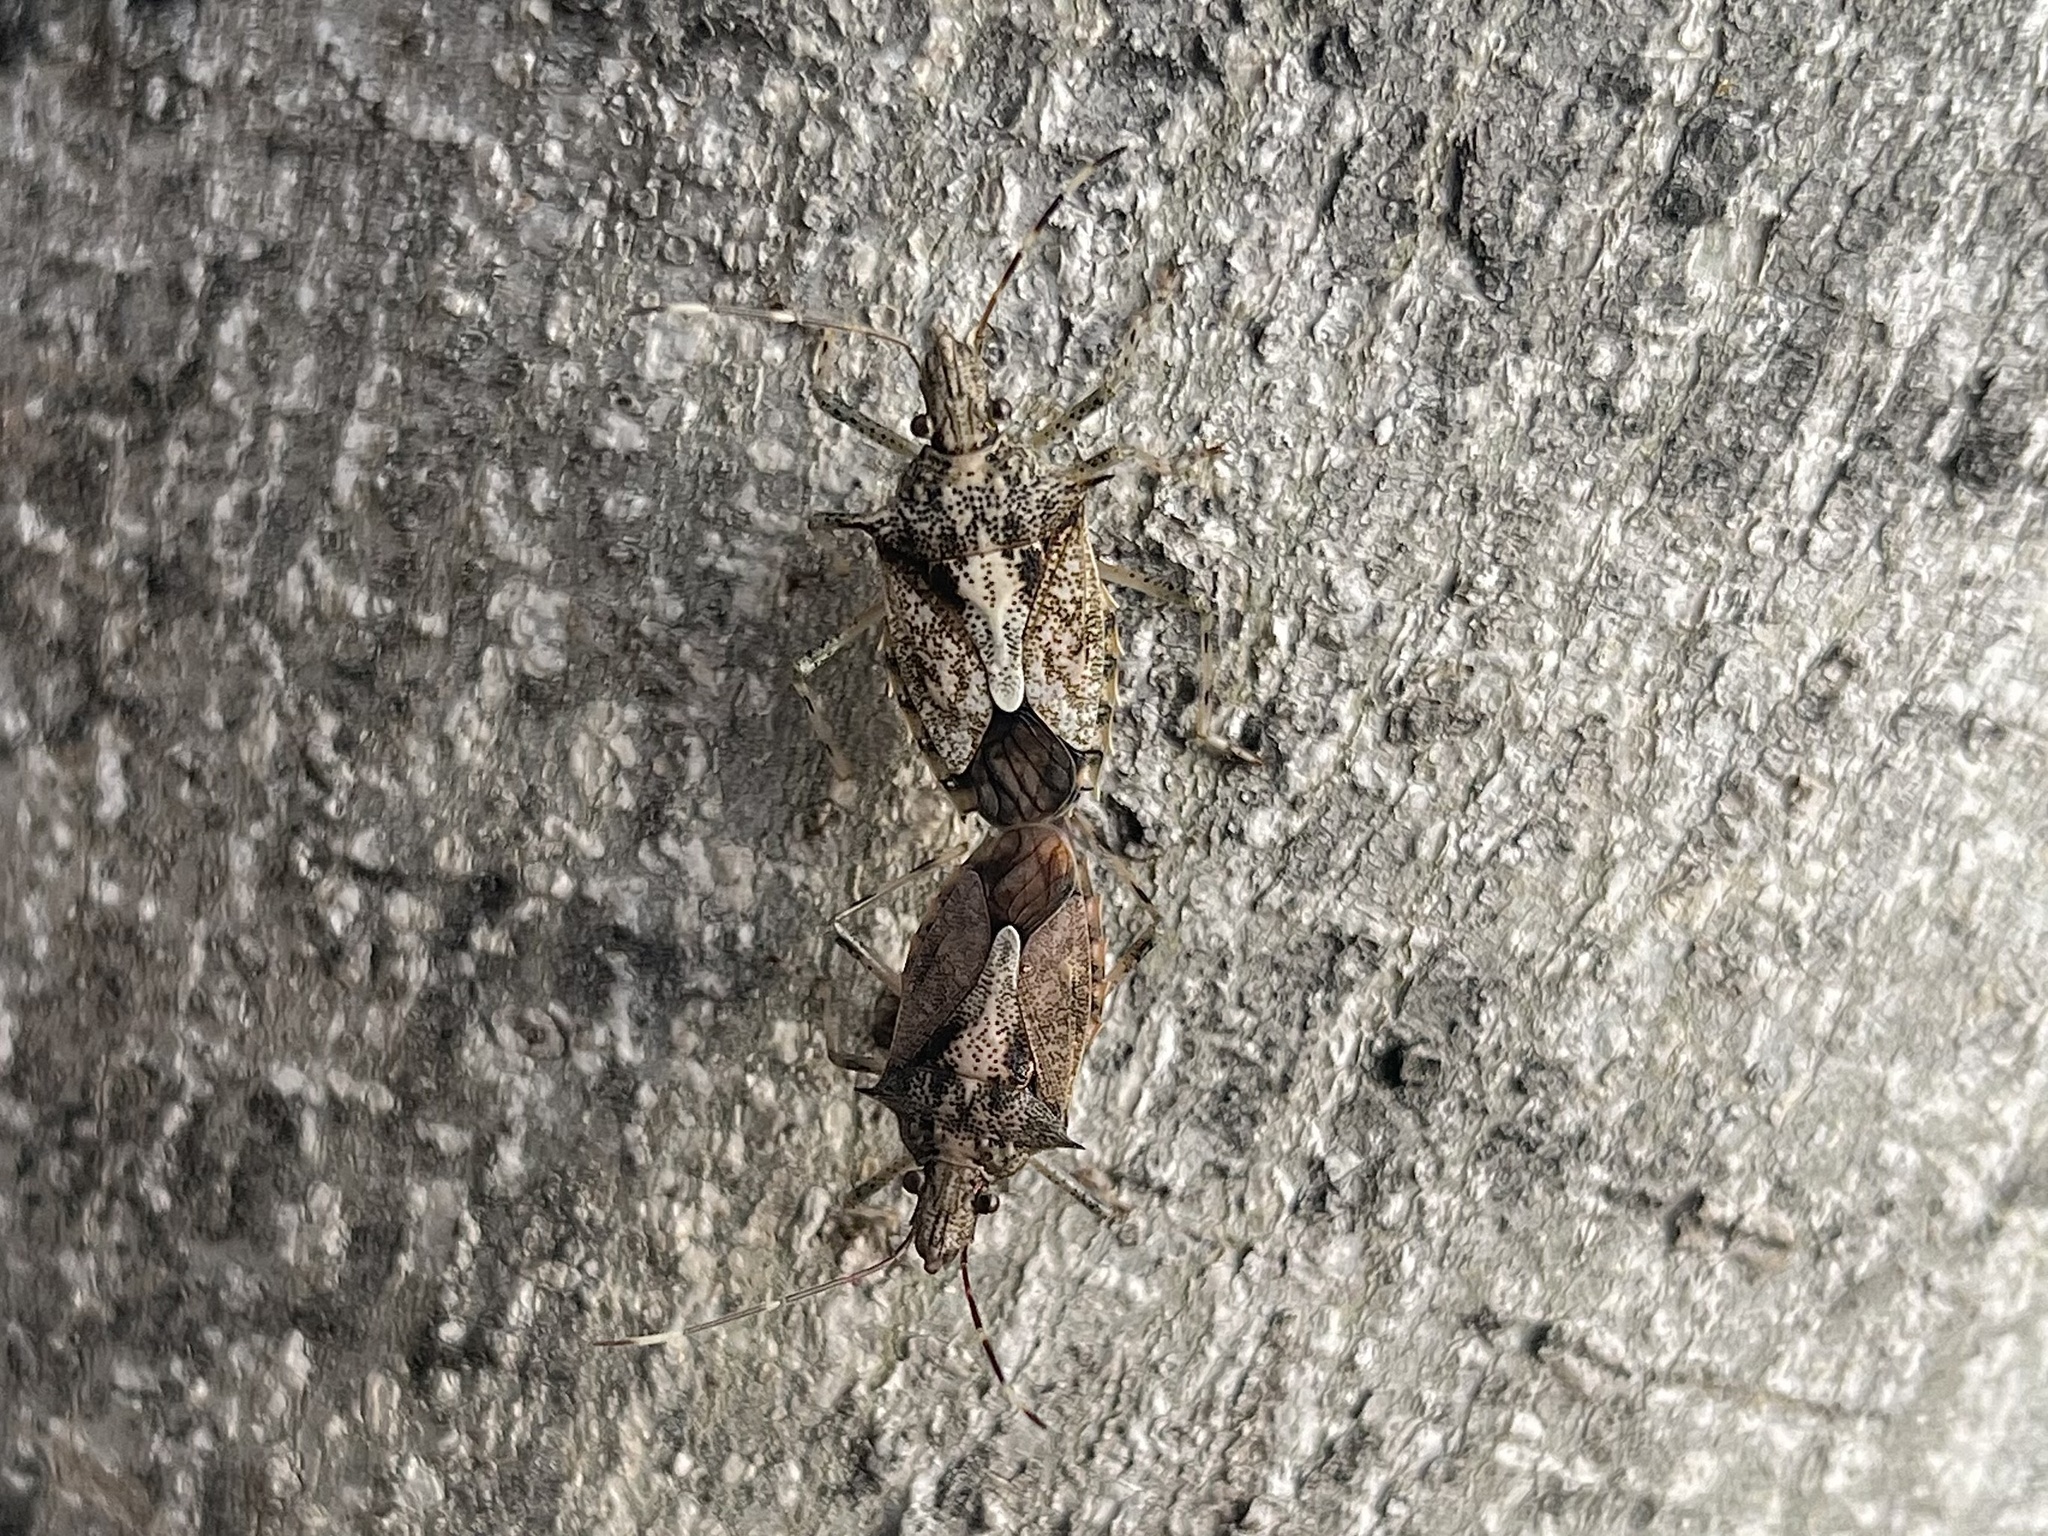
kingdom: Animalia
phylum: Arthropoda
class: Insecta
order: Hemiptera
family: Pentatomidae
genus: Bromocoris
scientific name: Bromocoris
